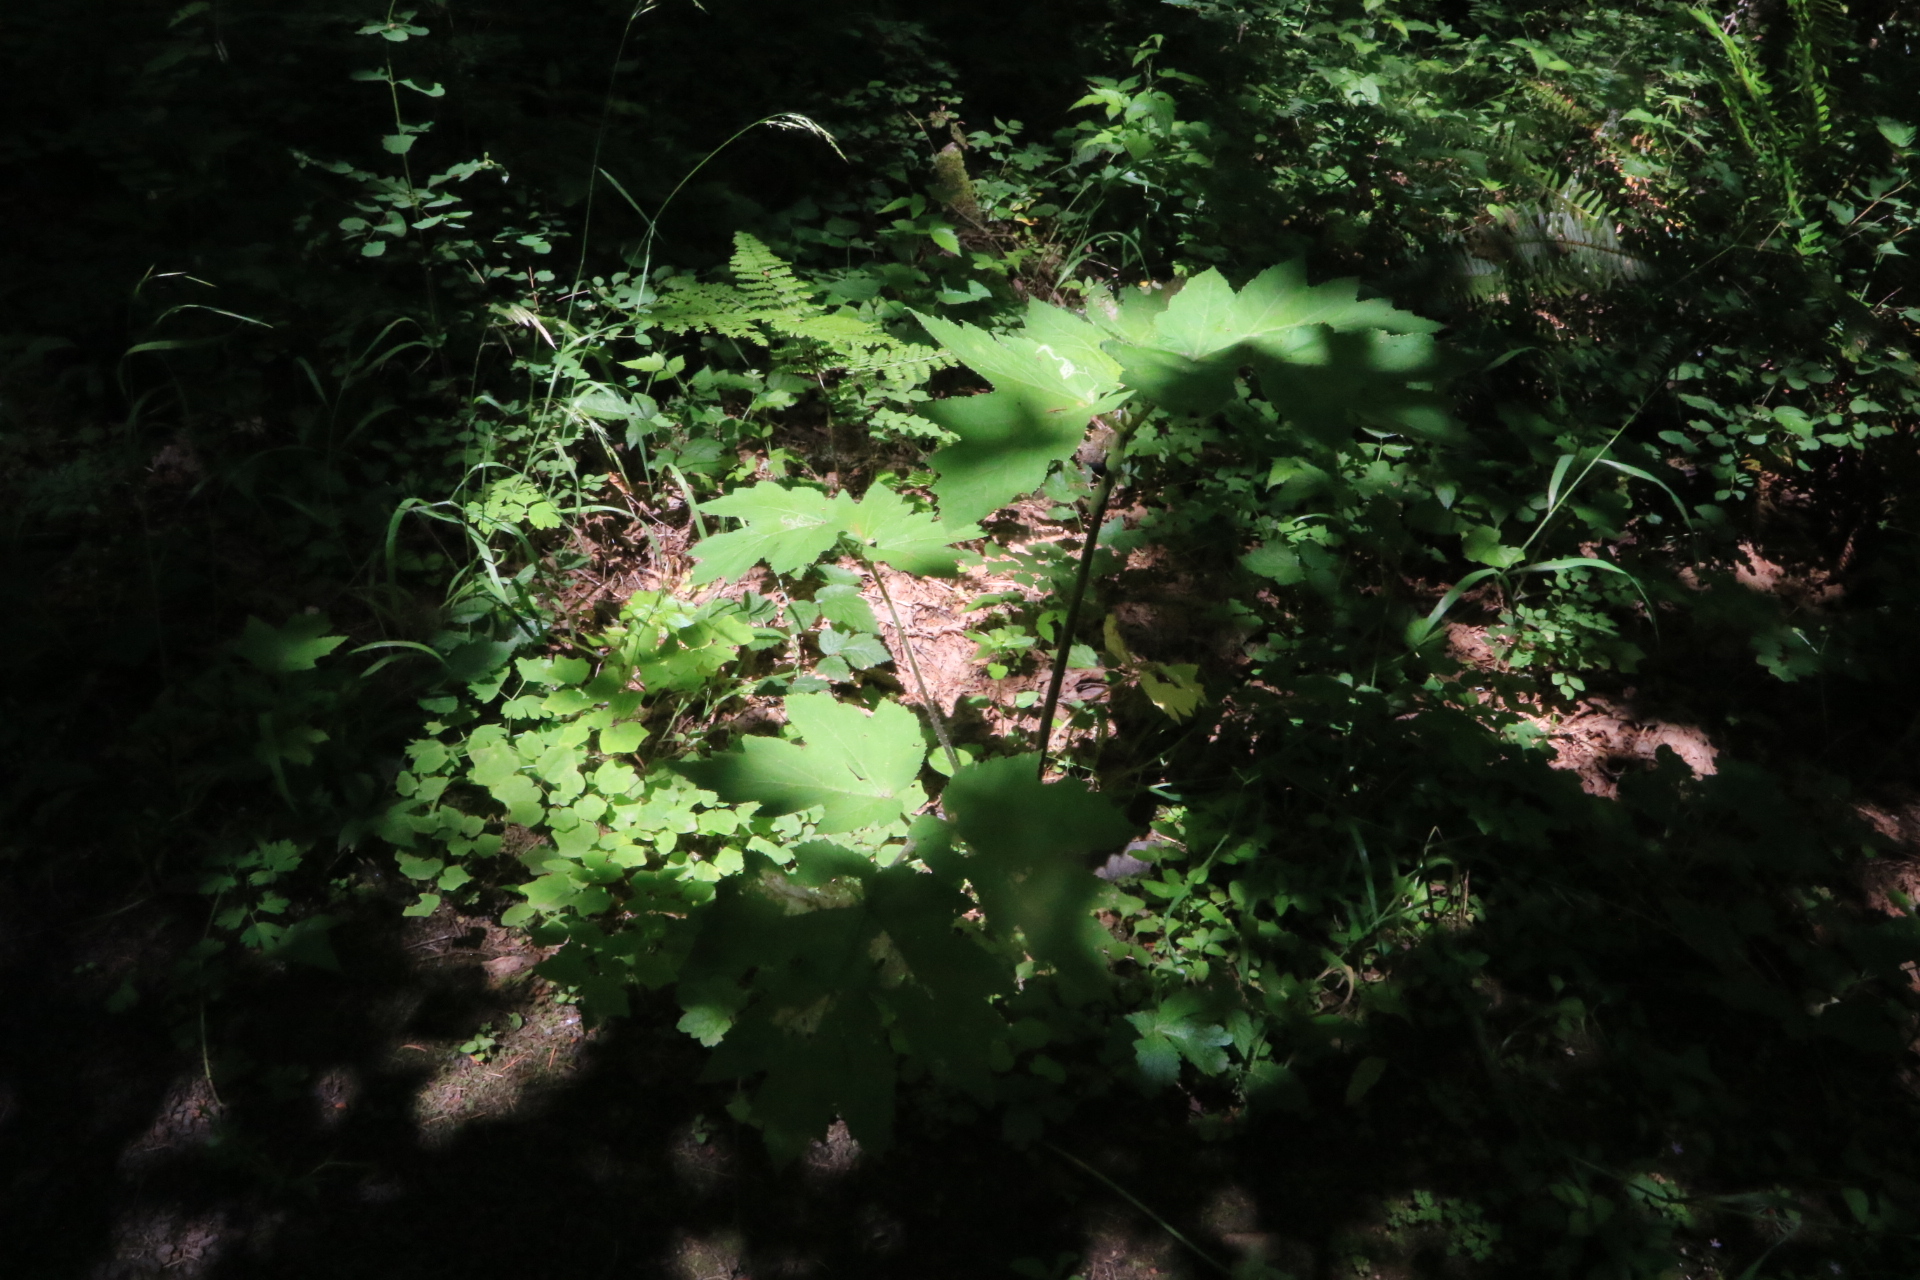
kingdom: Plantae
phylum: Tracheophyta
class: Magnoliopsida
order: Apiales
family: Apiaceae
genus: Heracleum
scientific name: Heracleum maximum
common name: American cow parsnip
